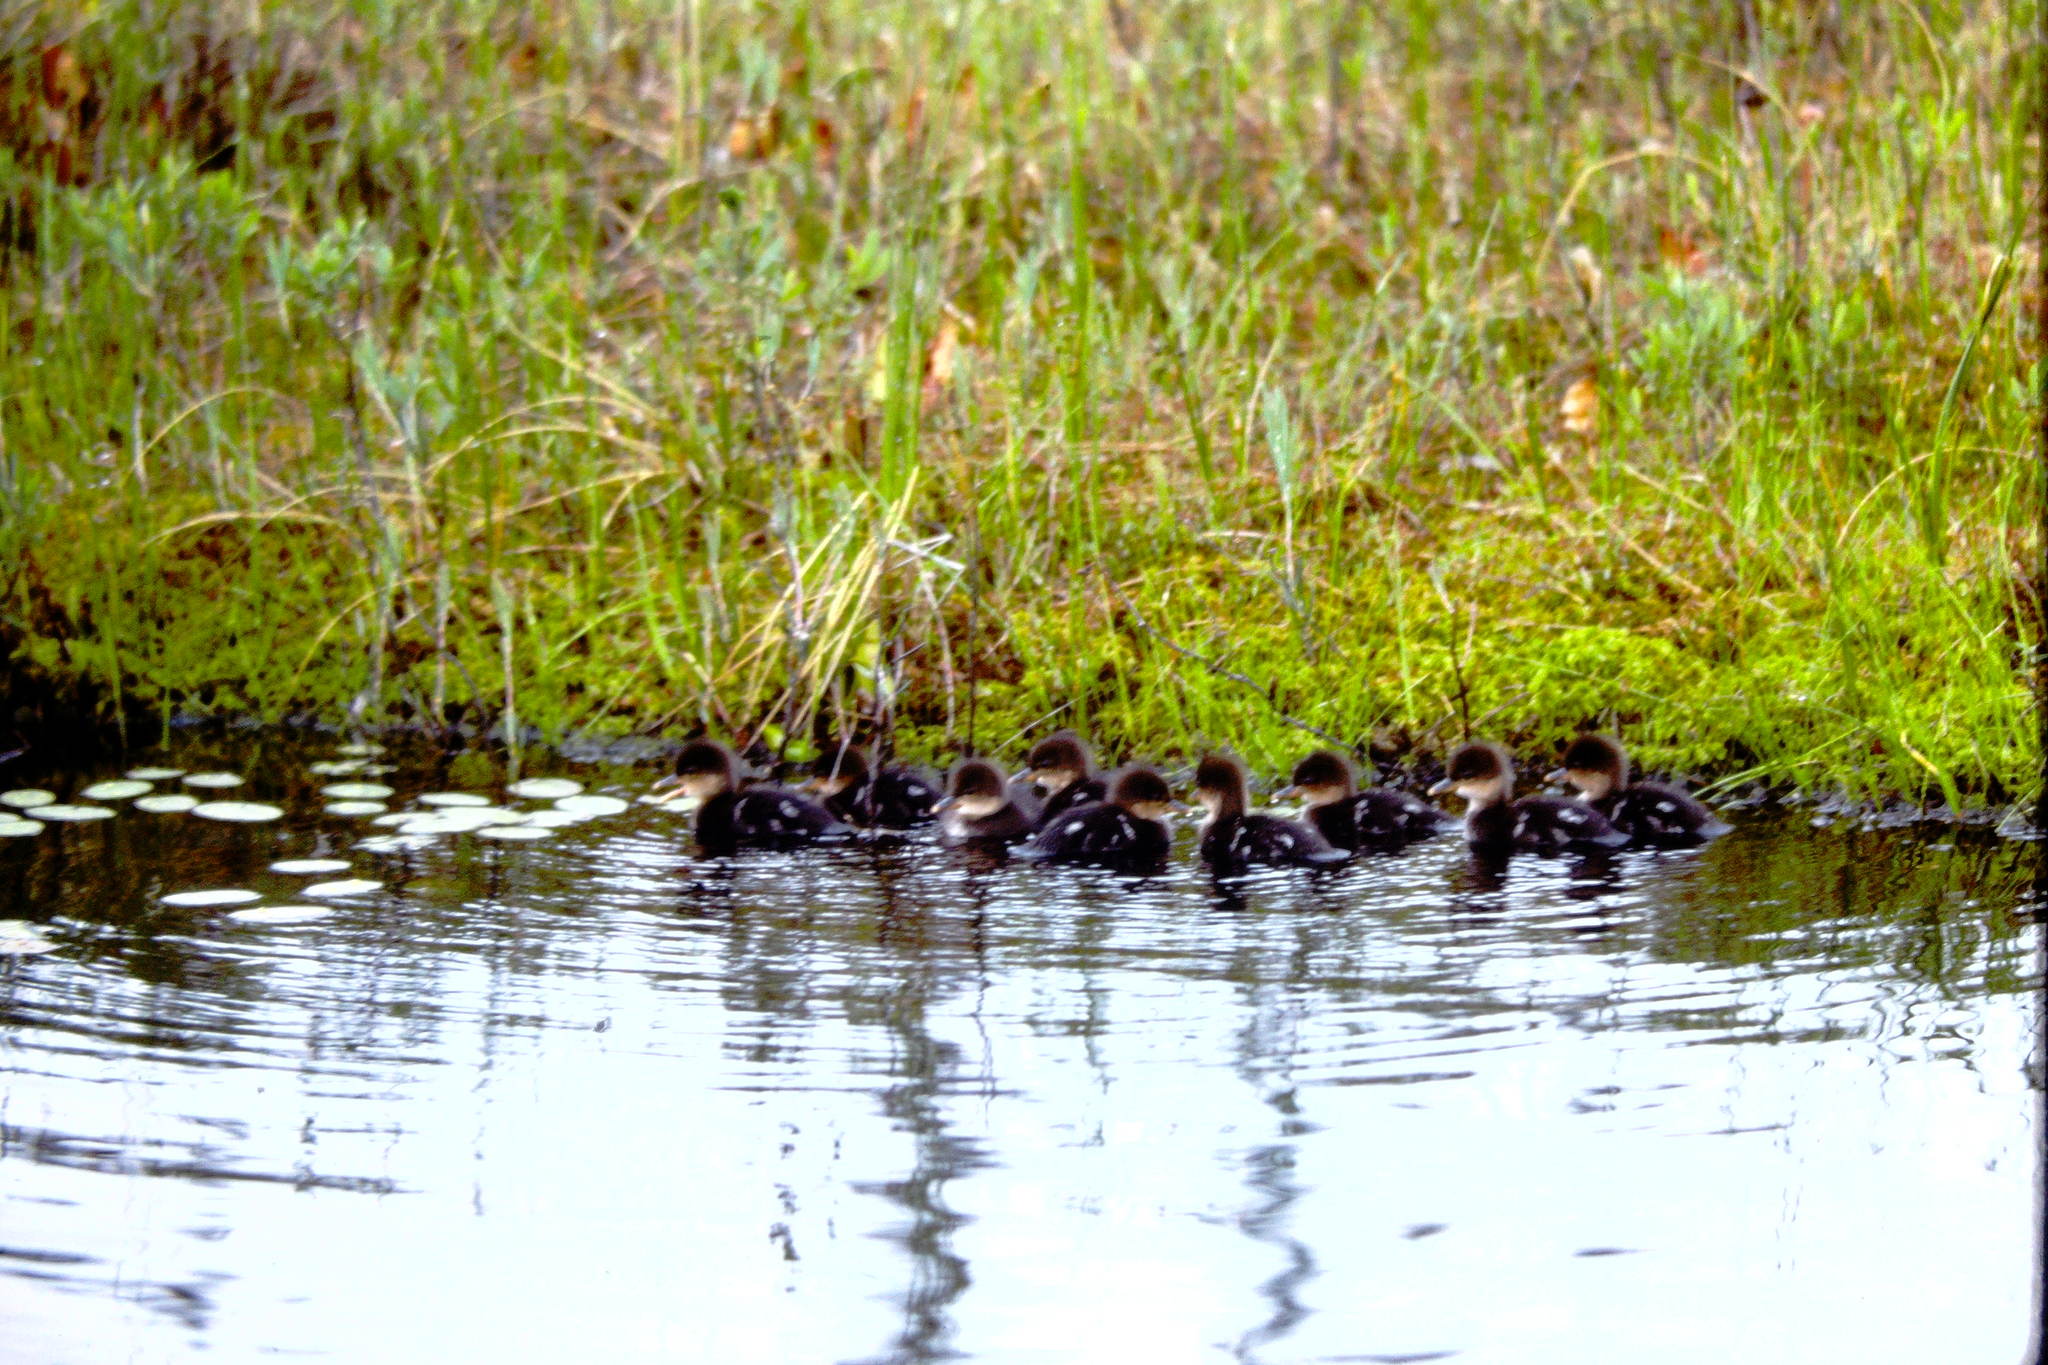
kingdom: Animalia
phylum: Chordata
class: Aves
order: Anseriformes
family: Anatidae
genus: Lophodytes
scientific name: Lophodytes cucullatus
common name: Hooded merganser
